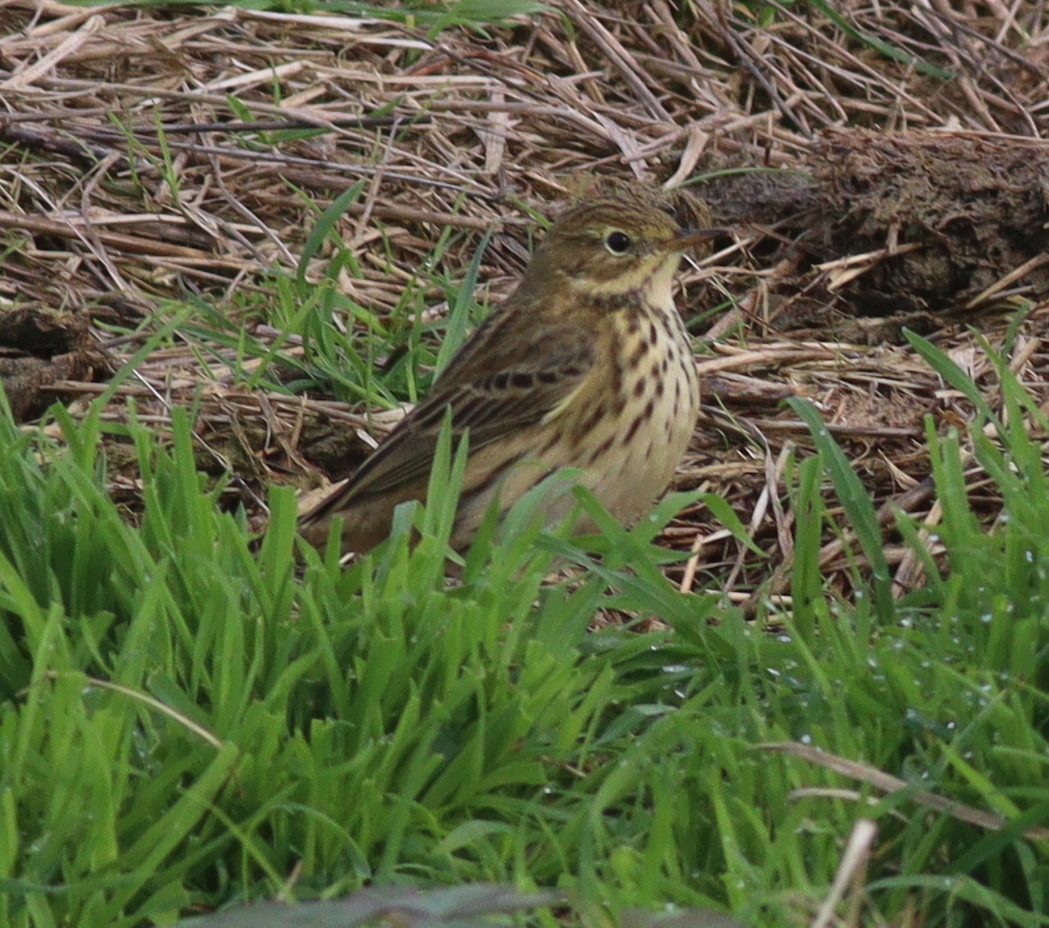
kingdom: Animalia
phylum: Chordata
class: Aves
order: Passeriformes
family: Motacillidae
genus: Anthus
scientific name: Anthus pratensis
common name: Meadow pipit
